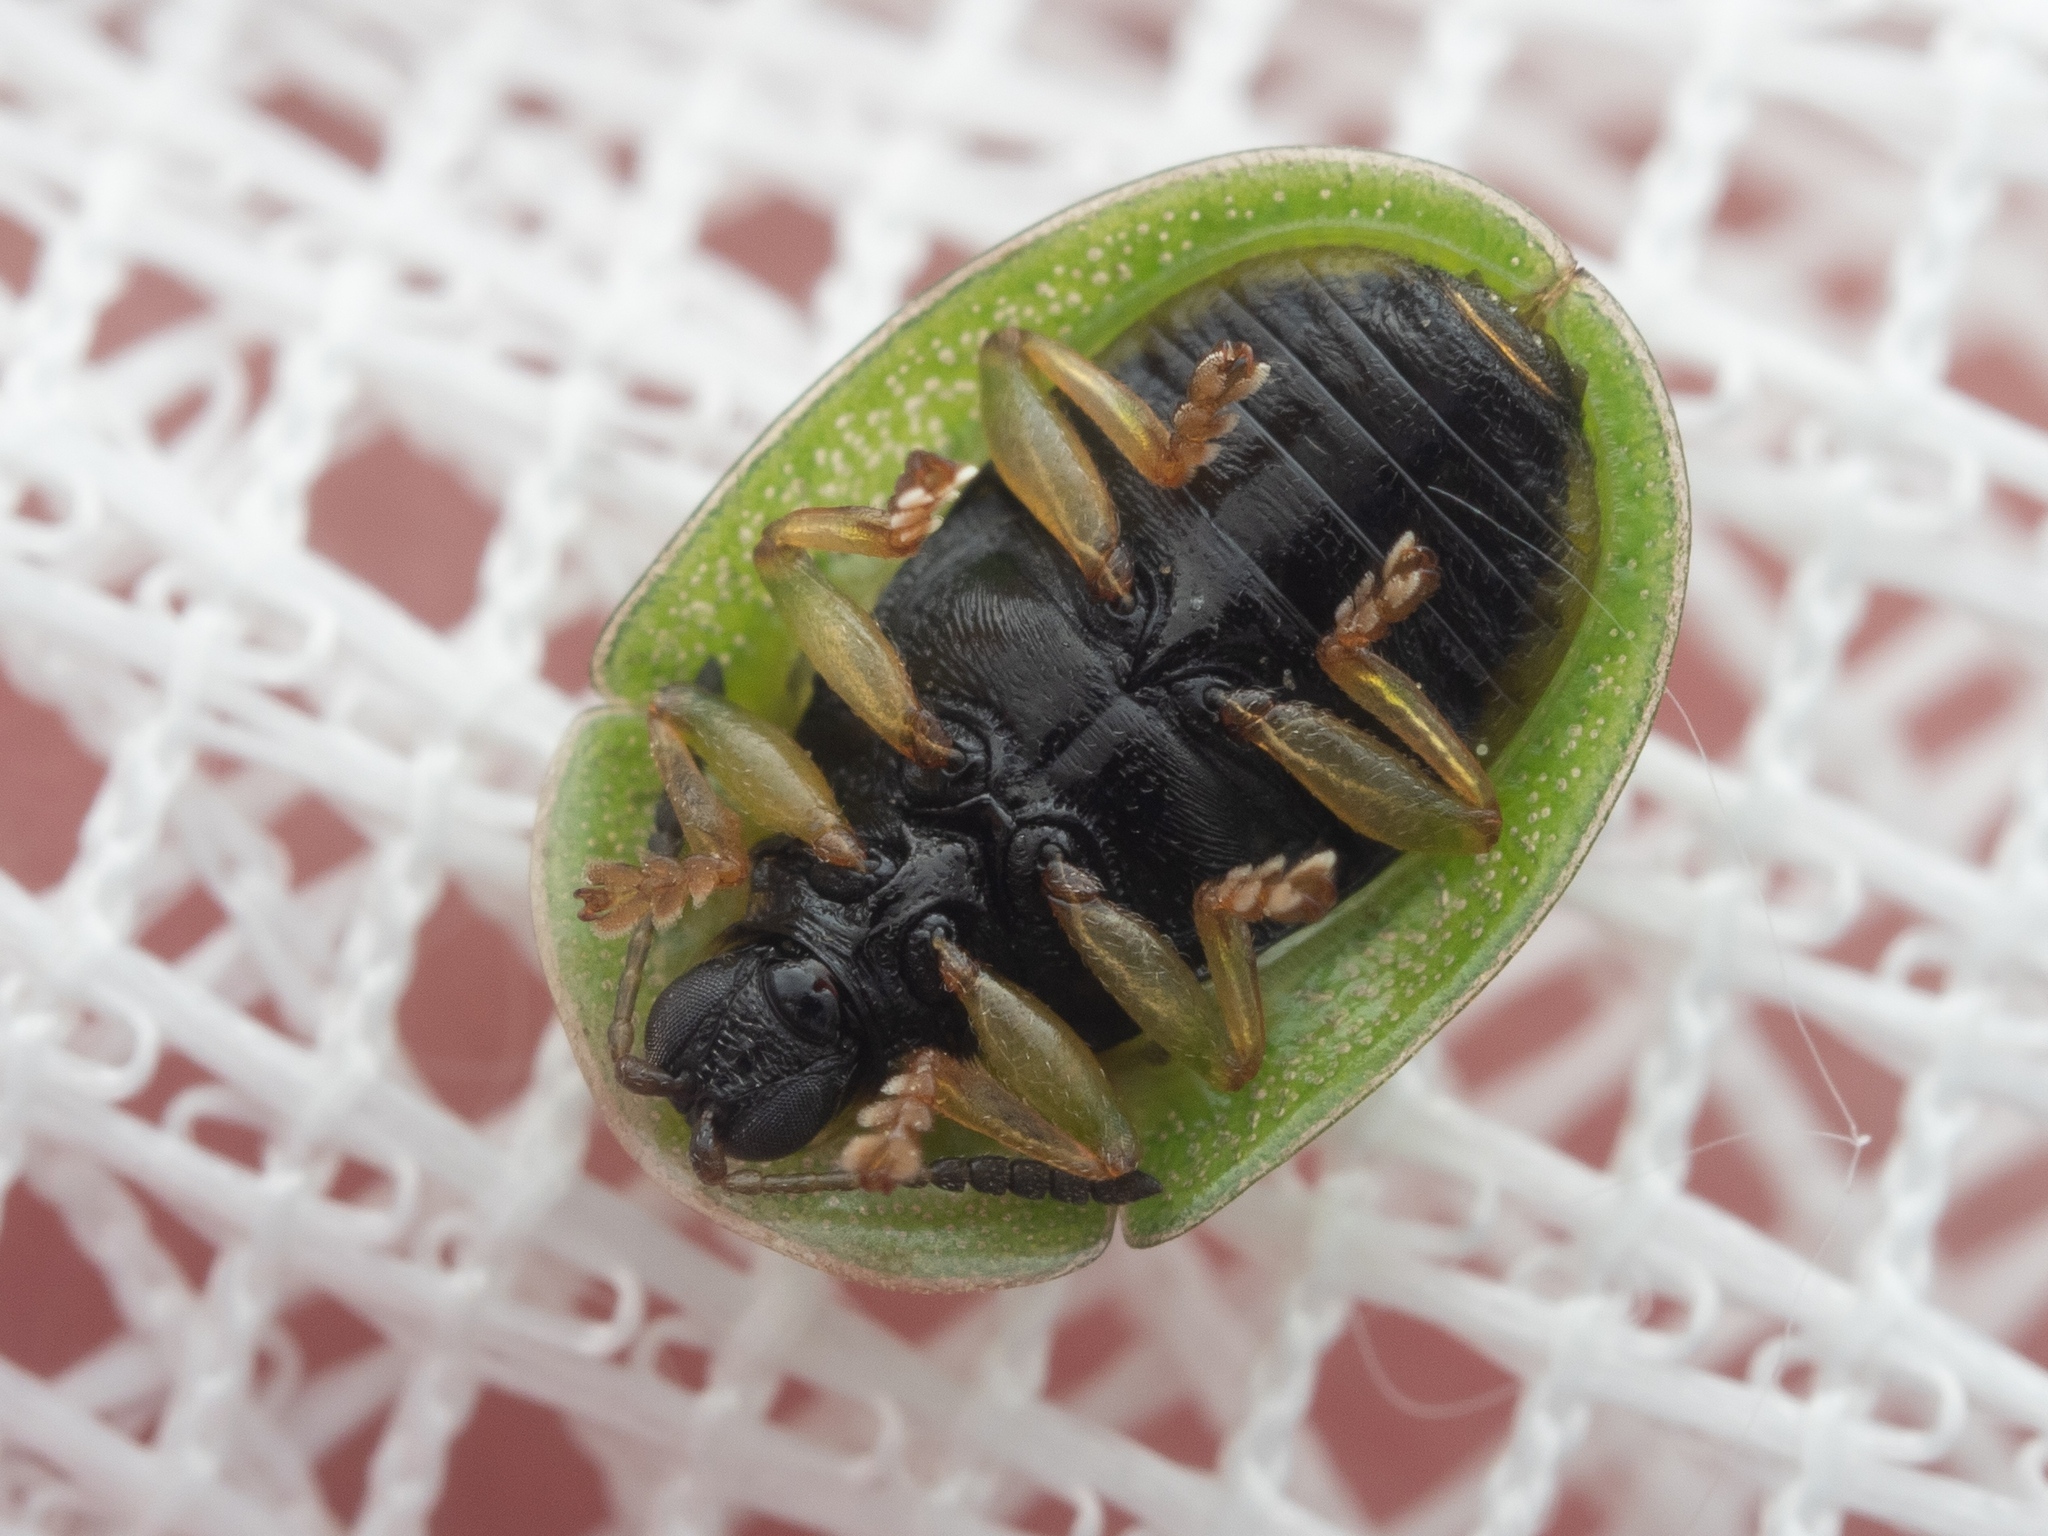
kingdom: Animalia
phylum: Arthropoda
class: Insecta
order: Coleoptera
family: Chrysomelidae
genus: Cassida
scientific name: Cassida stigmatica
